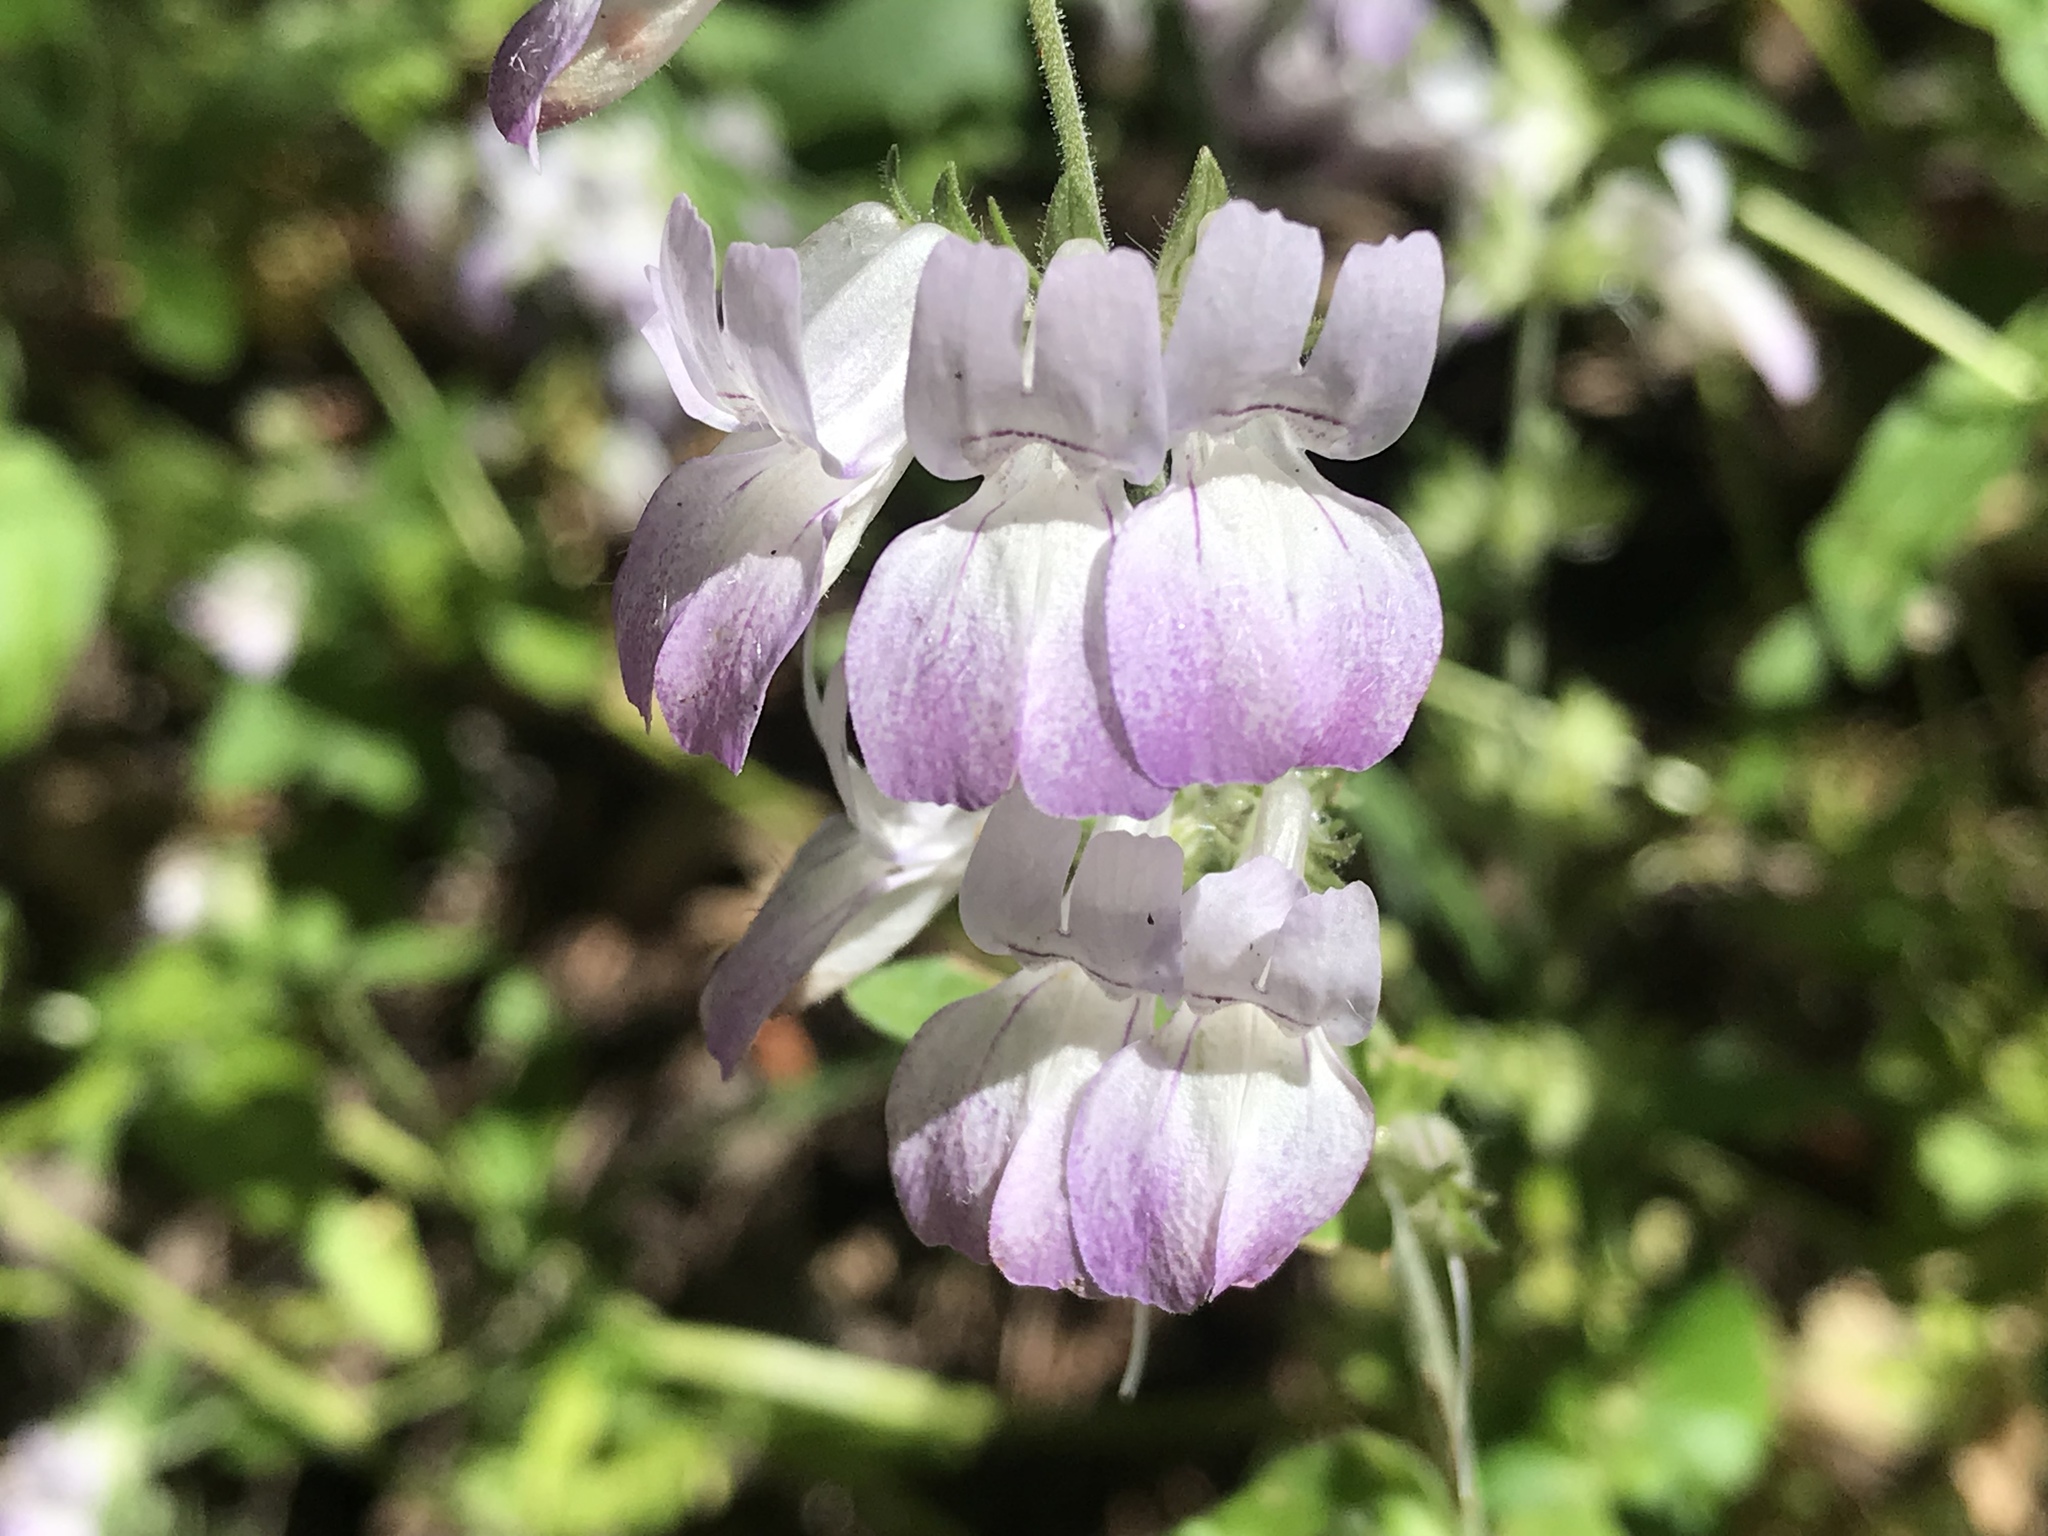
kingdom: Plantae
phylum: Tracheophyta
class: Magnoliopsida
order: Lamiales
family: Plantaginaceae
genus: Collinsia
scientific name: Collinsia heterophylla
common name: Chinese-houses
